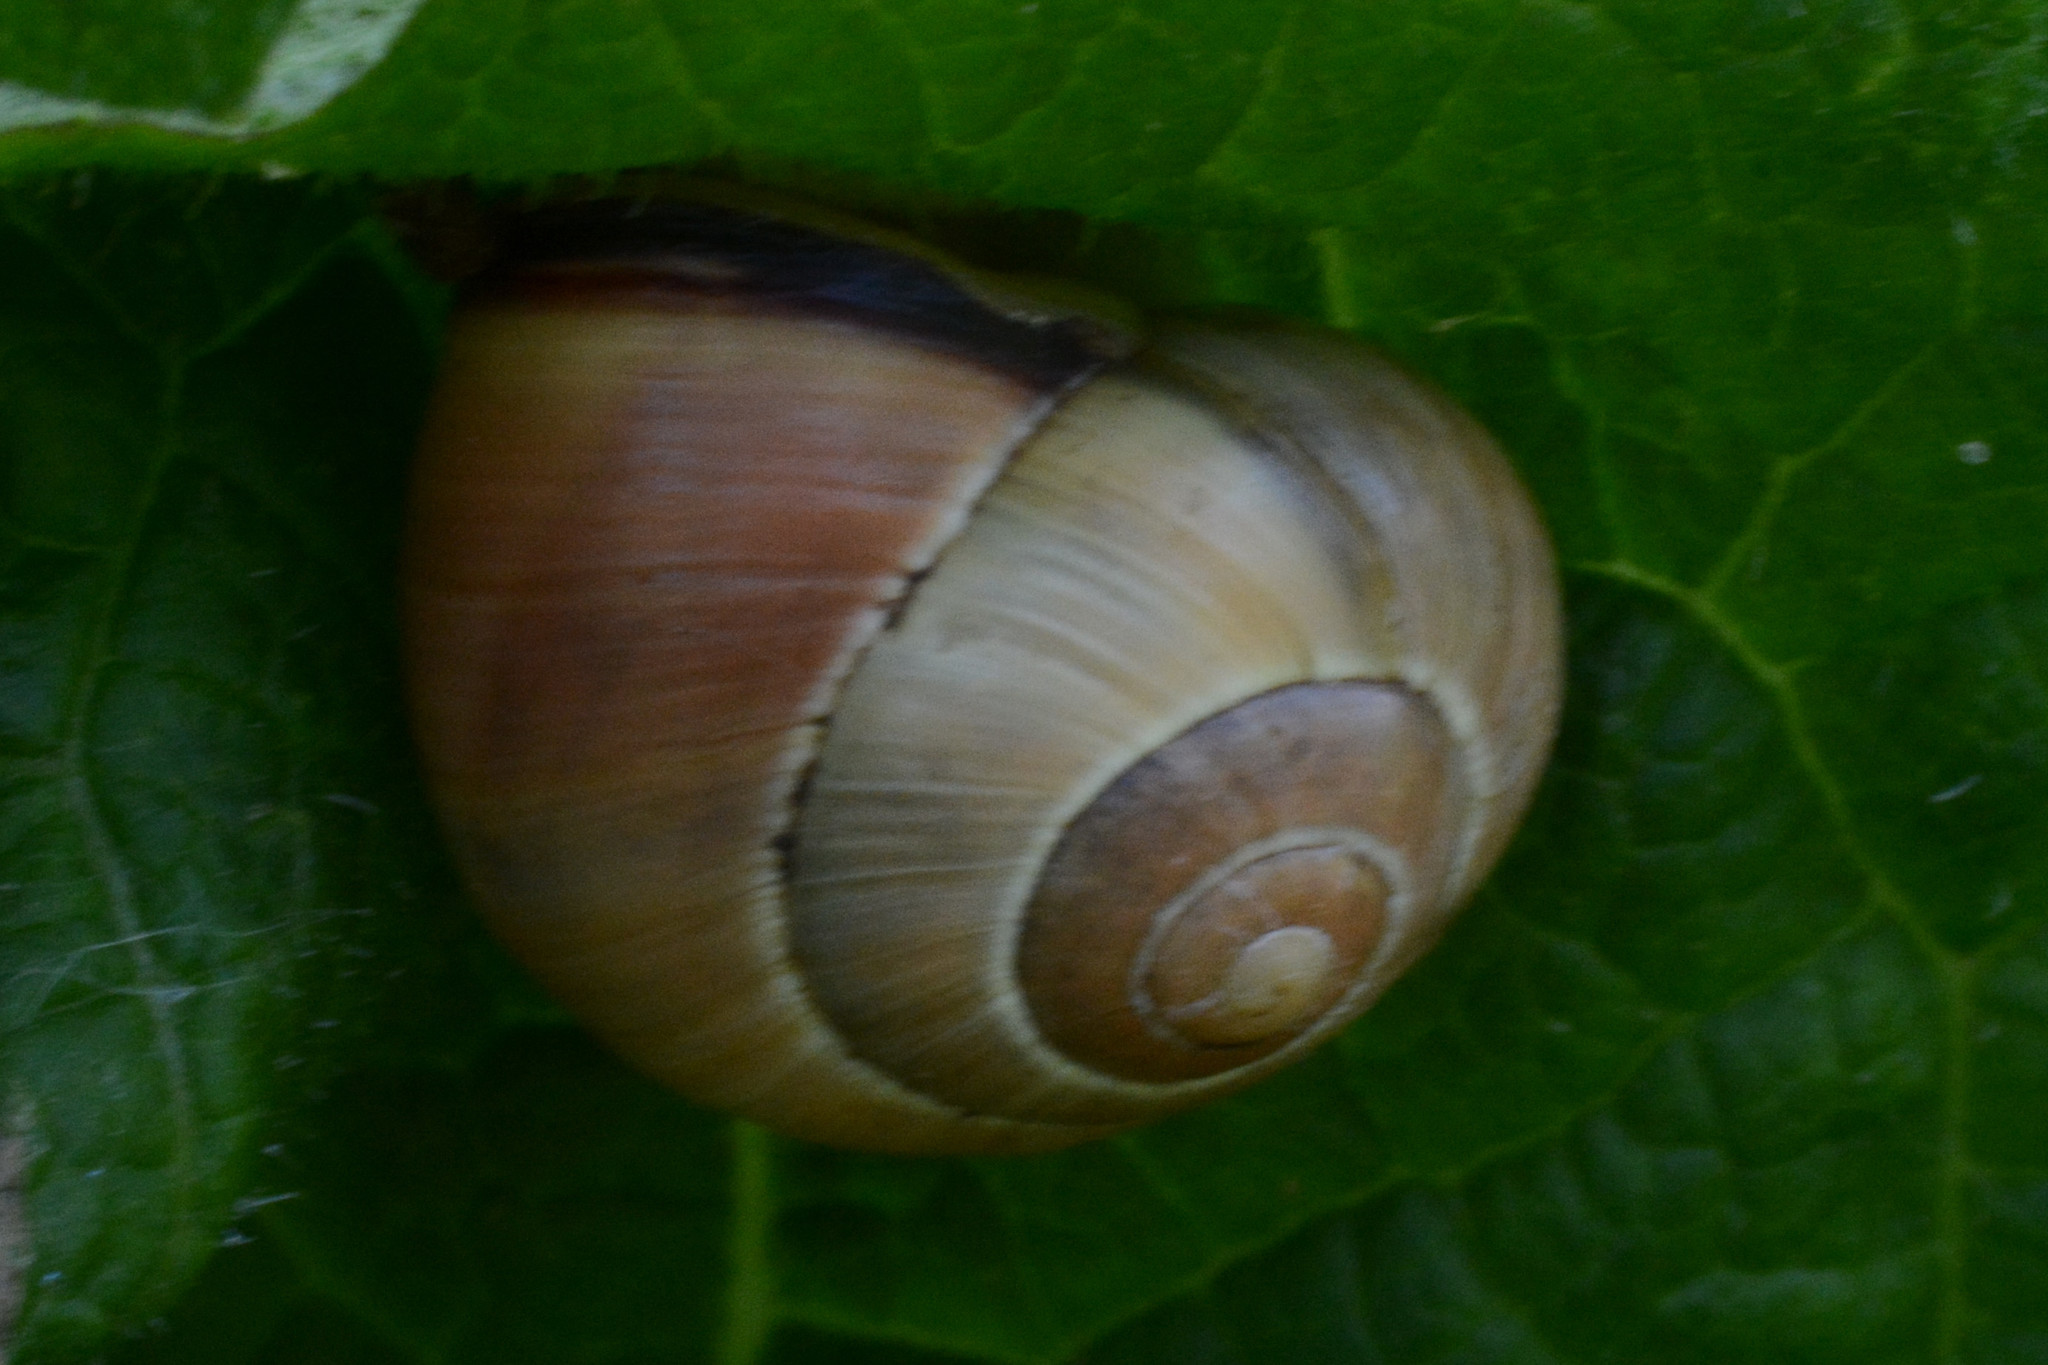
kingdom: Animalia
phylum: Mollusca
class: Gastropoda
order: Stylommatophora
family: Helicidae
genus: Cepaea
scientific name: Cepaea nemoralis
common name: Grovesnail
